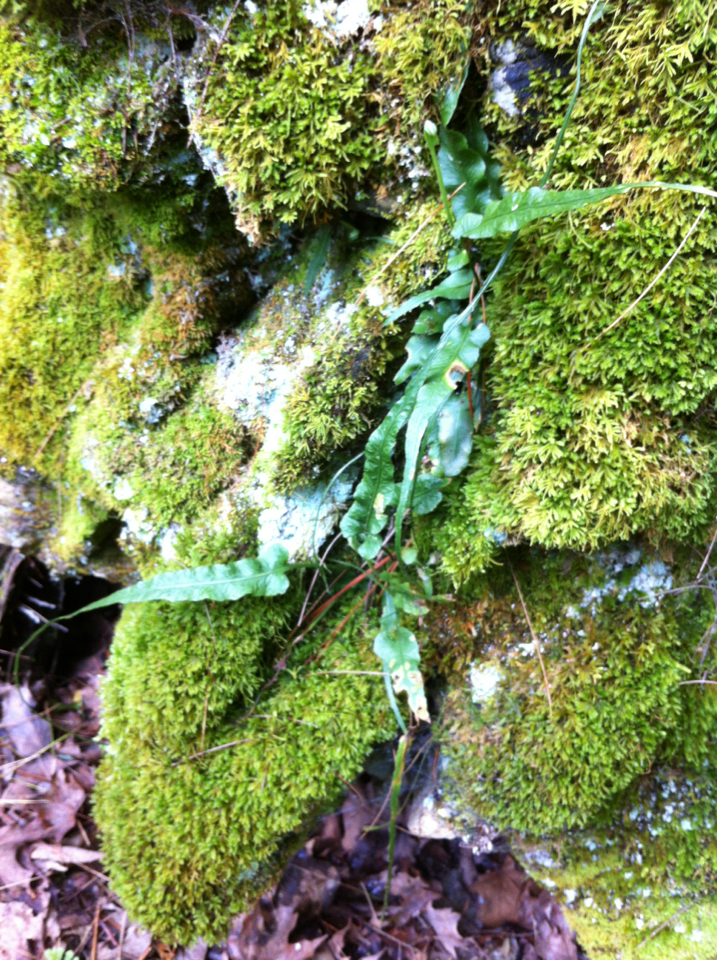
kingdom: Plantae
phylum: Tracheophyta
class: Polypodiopsida
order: Polypodiales
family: Aspleniaceae
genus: Asplenium
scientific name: Asplenium rhizophyllum
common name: Walking fern
